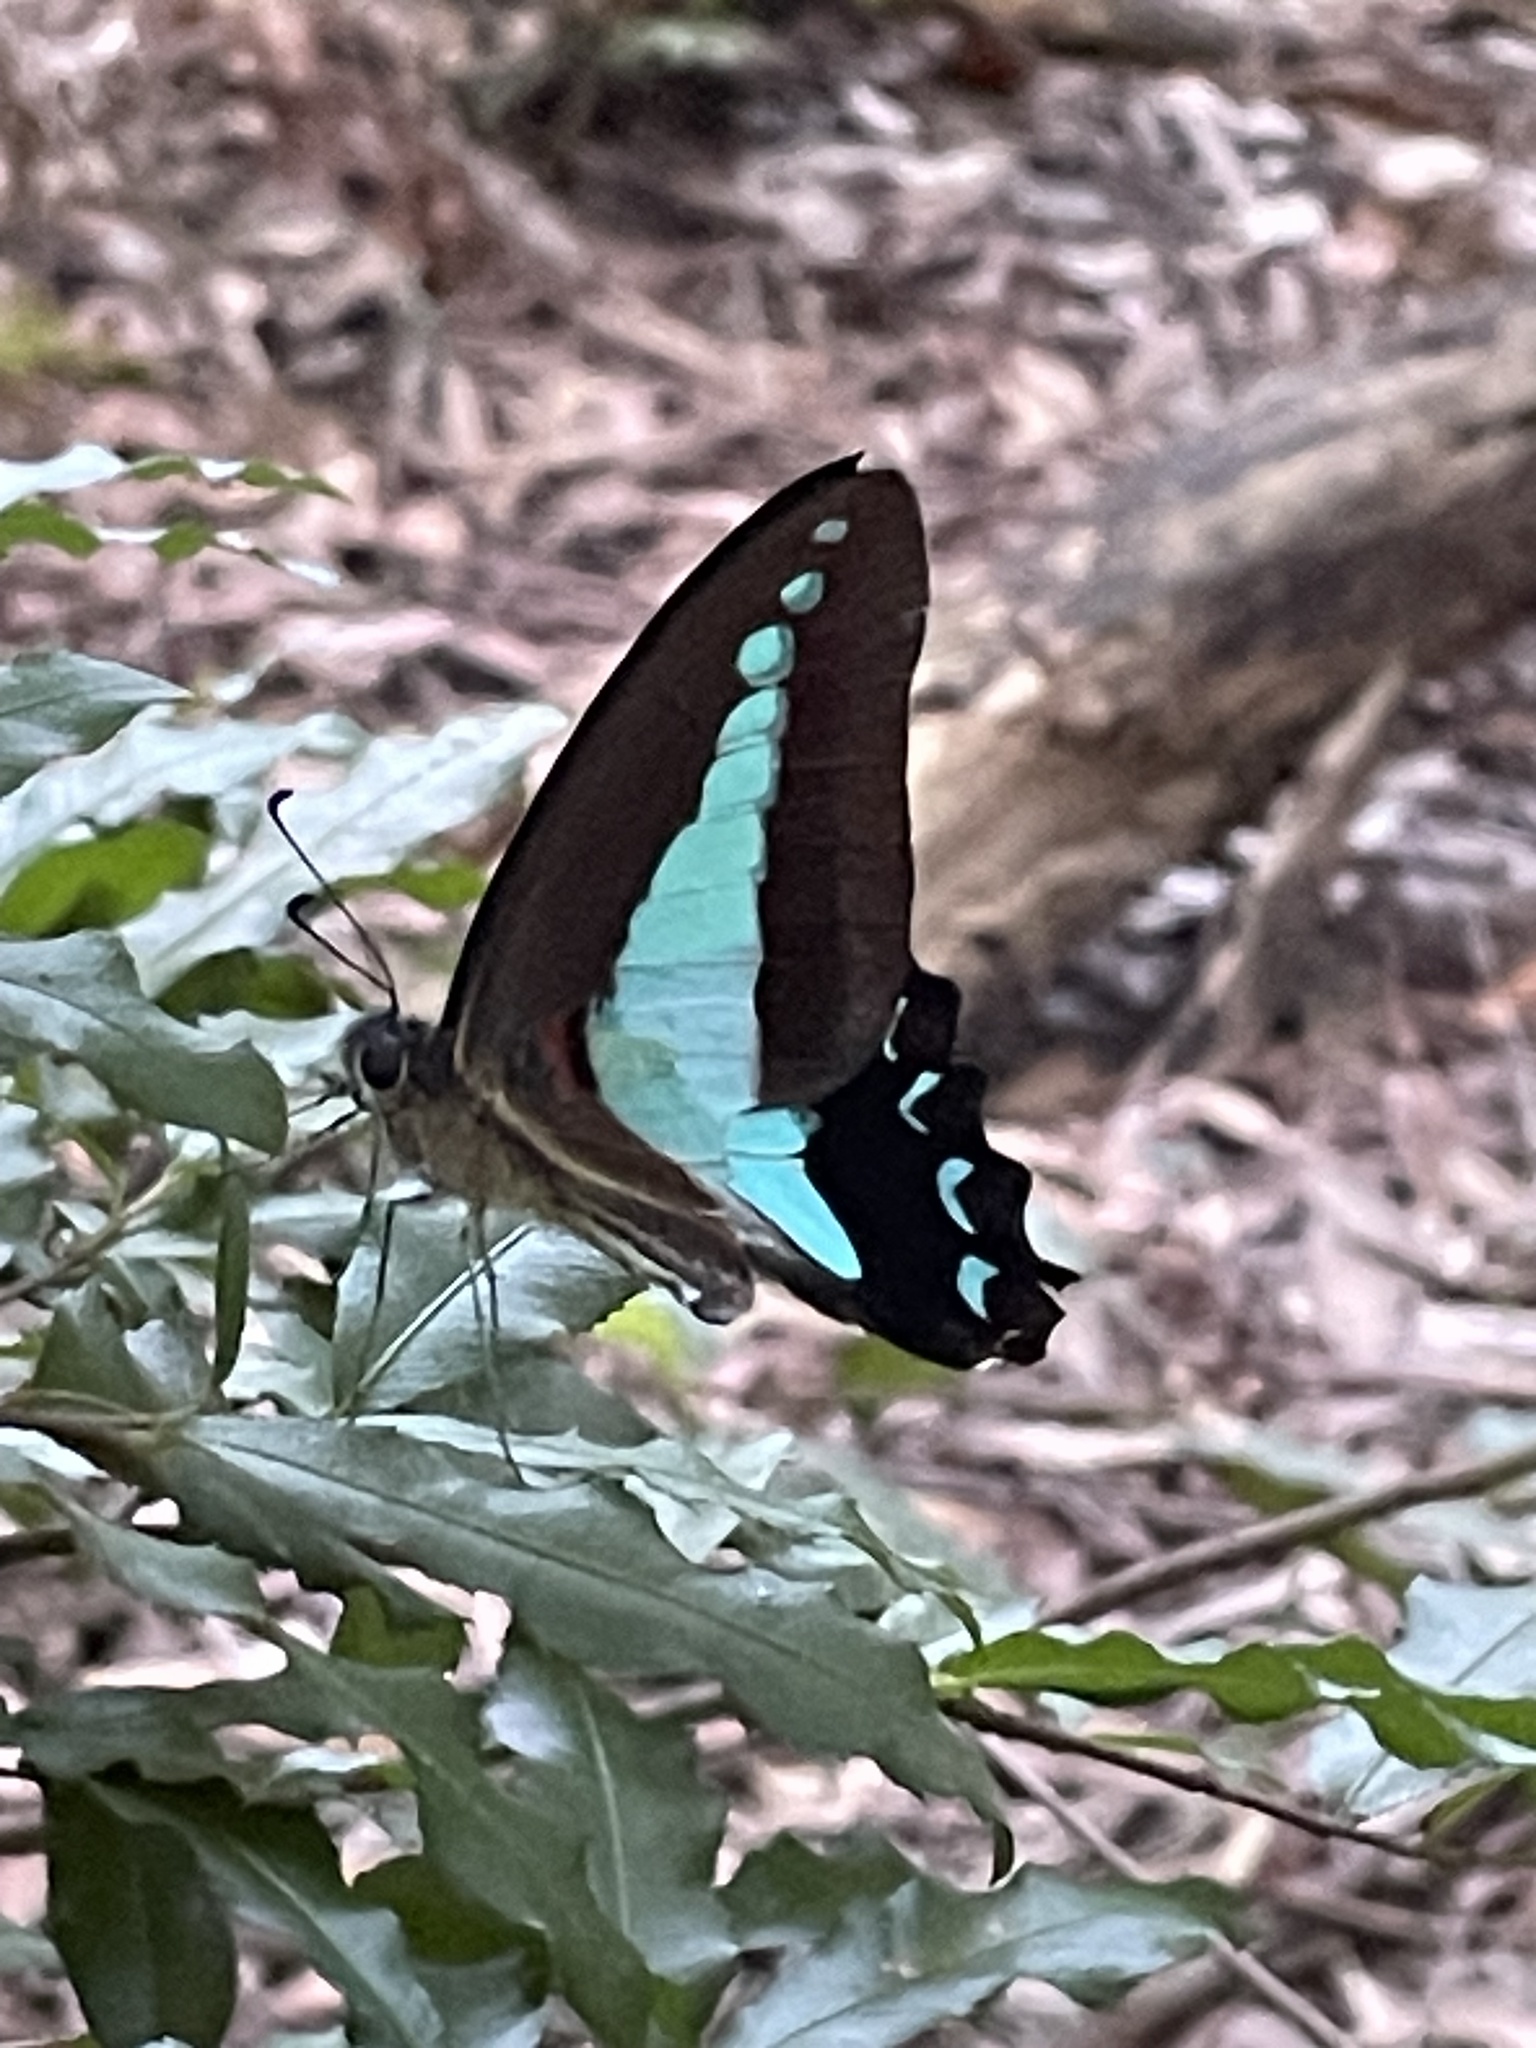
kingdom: Animalia
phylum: Arthropoda
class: Insecta
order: Lepidoptera
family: Papilionidae
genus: Graphium
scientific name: Graphium
